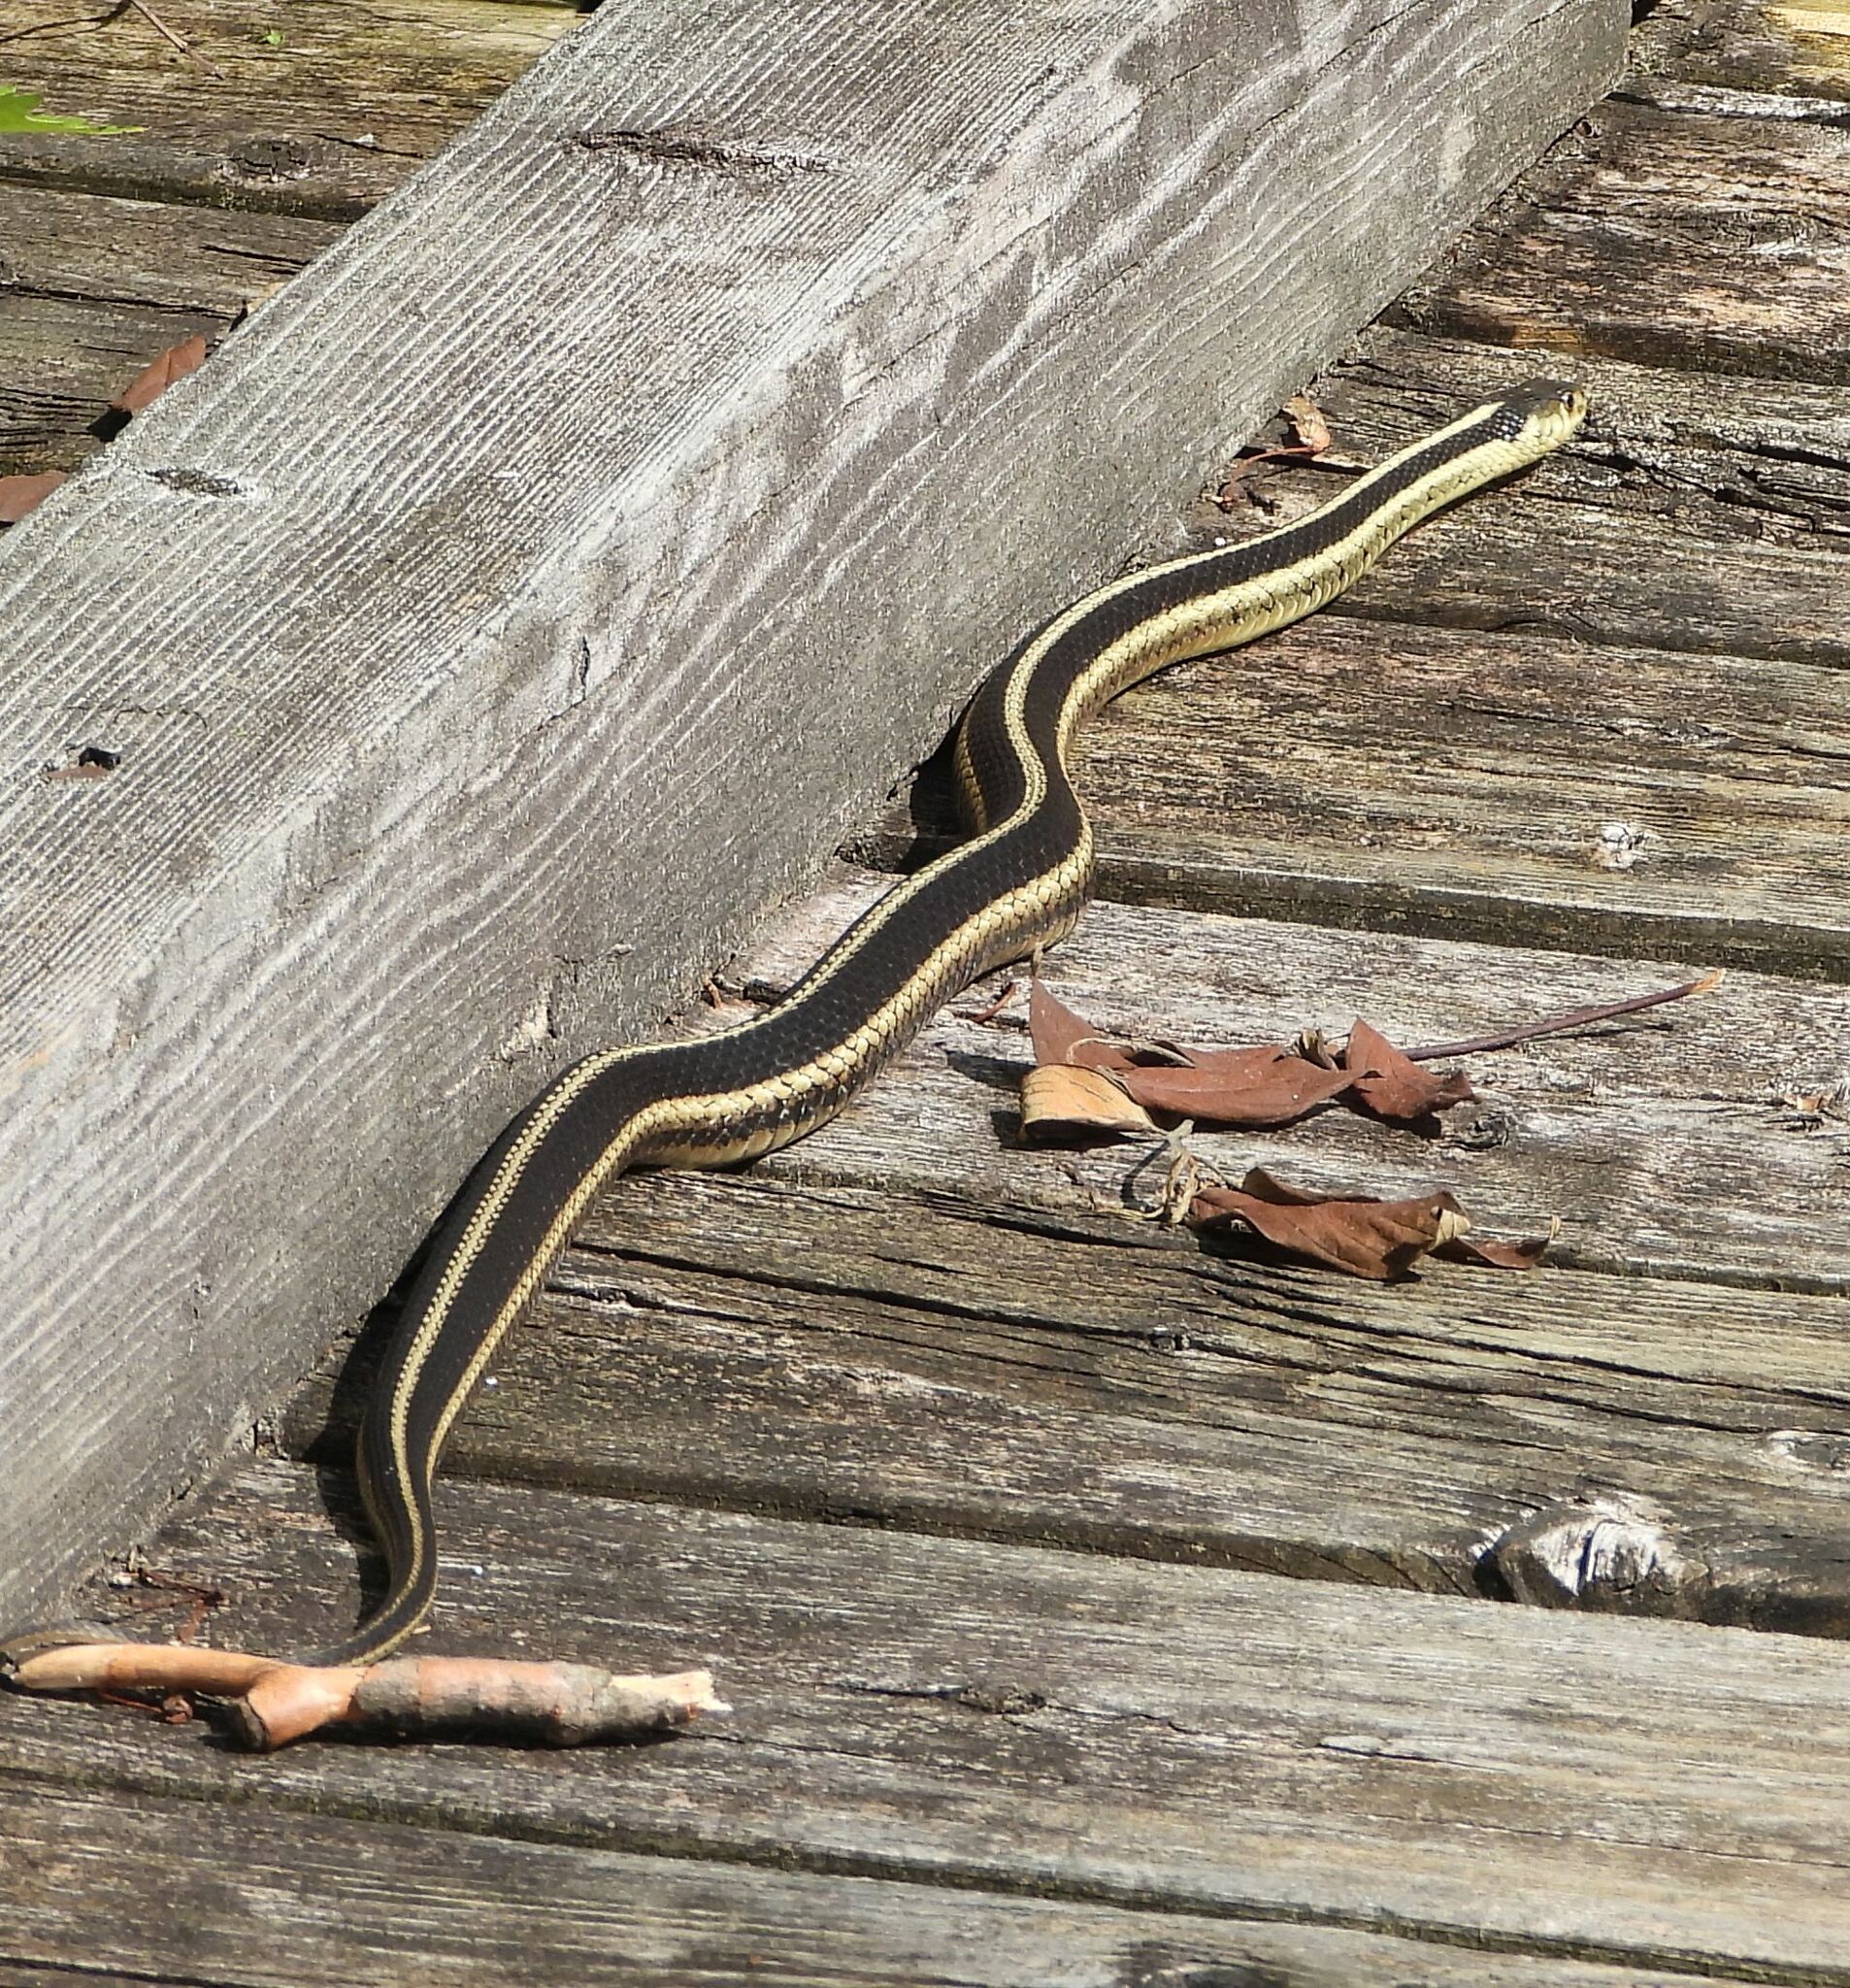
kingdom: Animalia
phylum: Chordata
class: Squamata
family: Colubridae
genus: Thamnophis
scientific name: Thamnophis sirtalis
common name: Common garter snake
